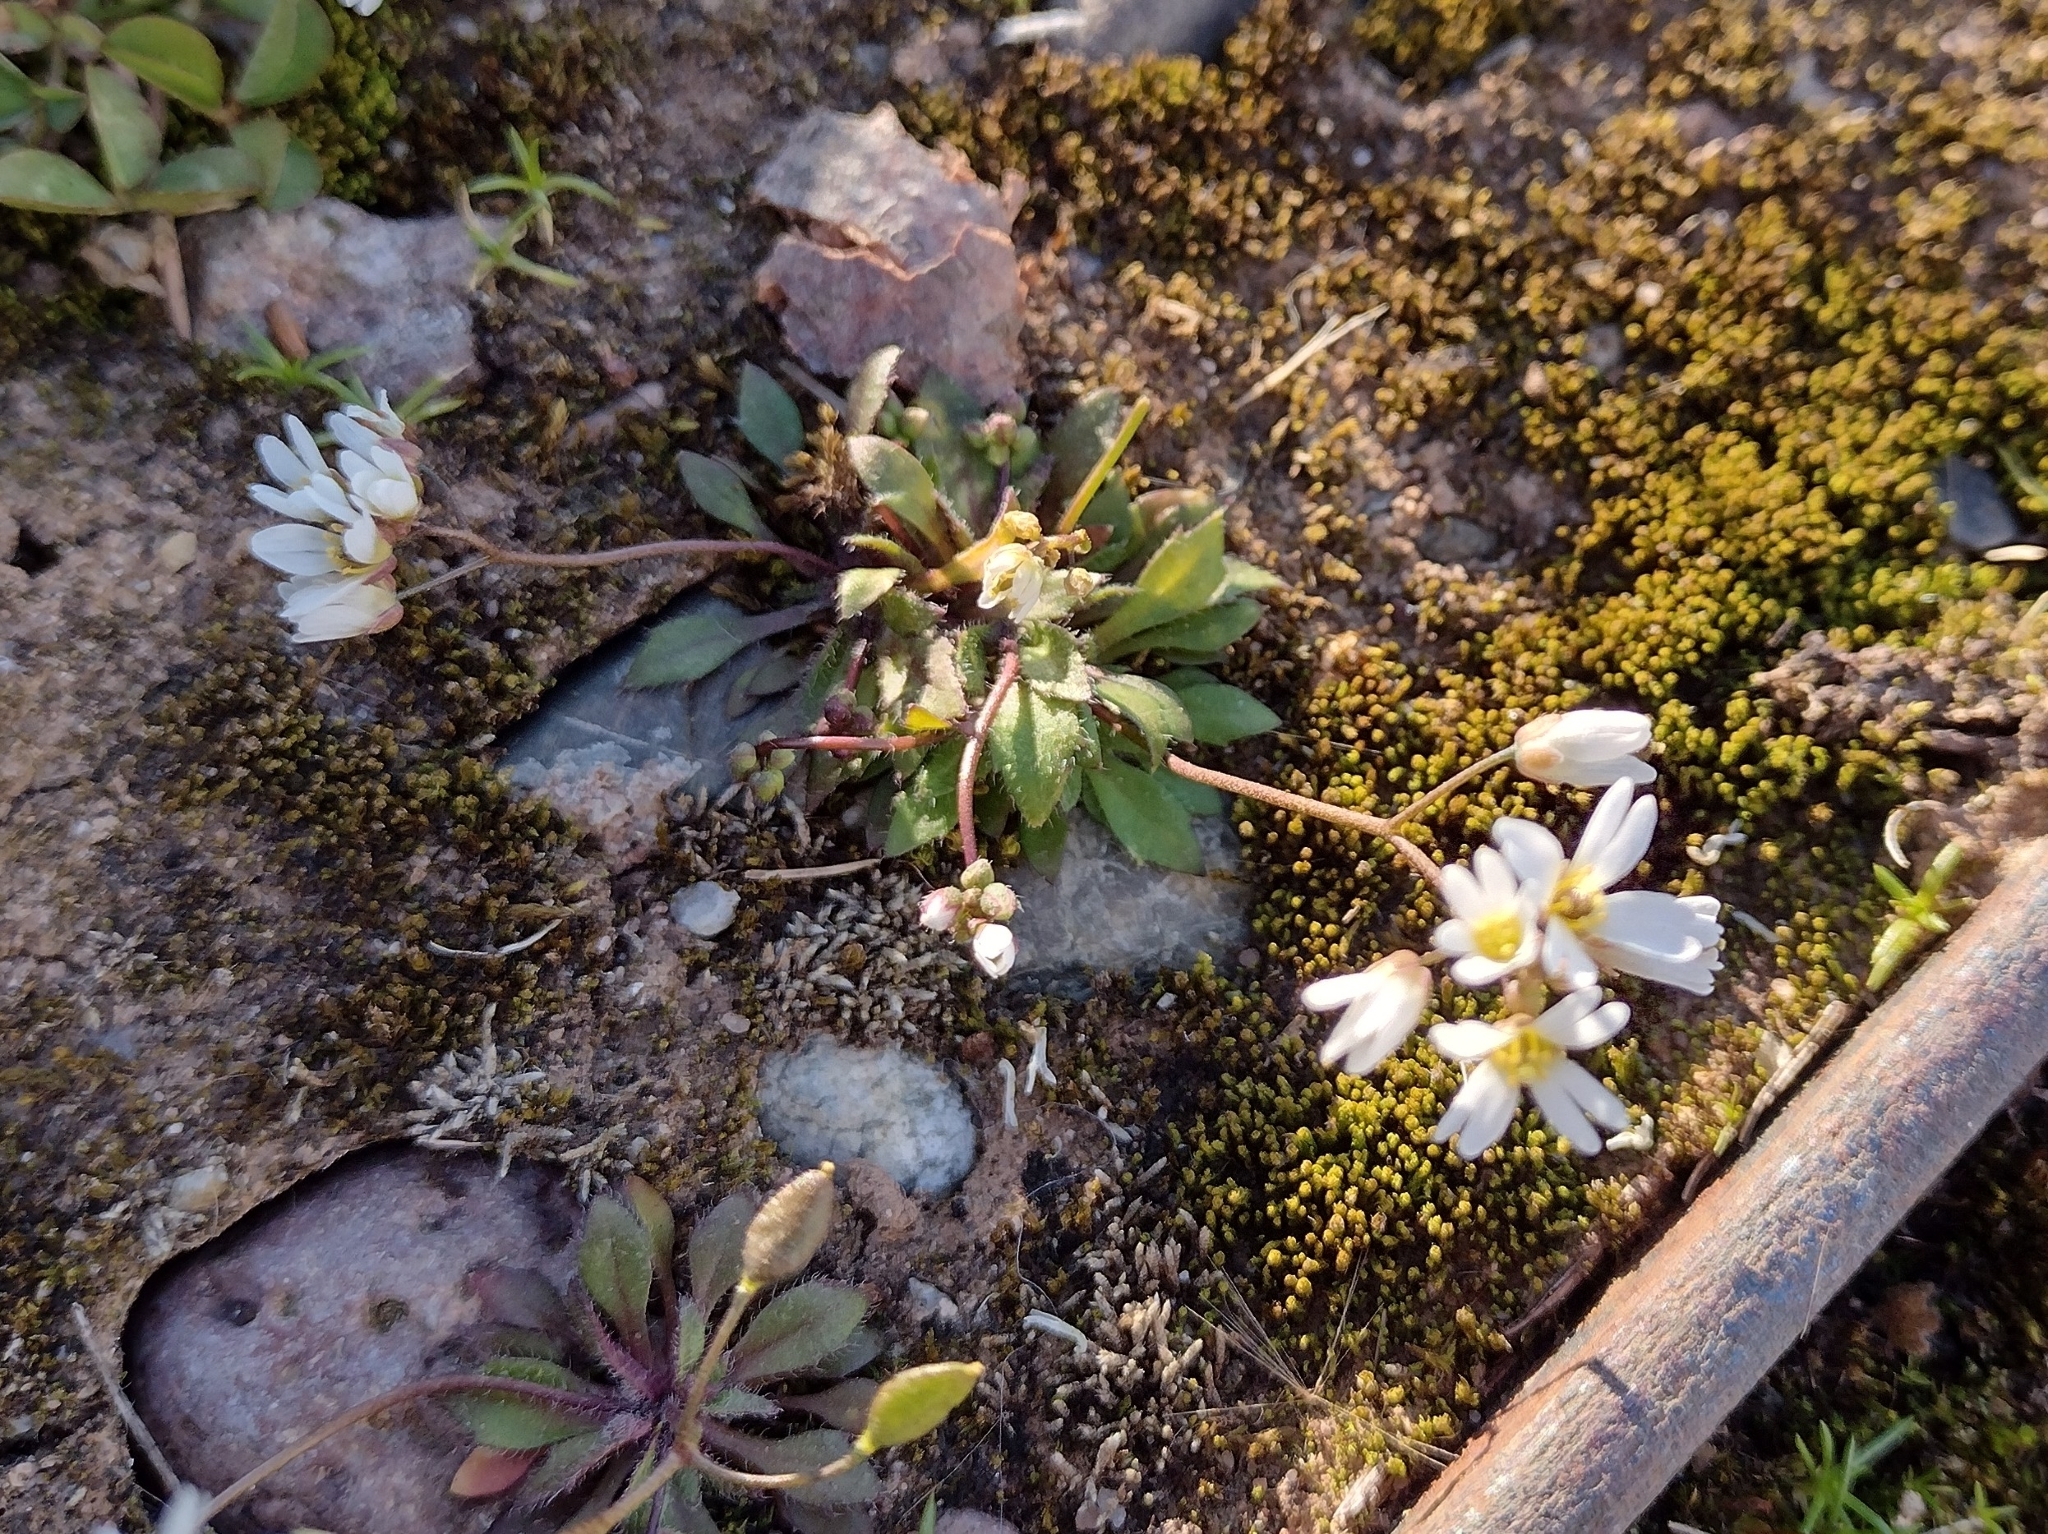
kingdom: Plantae
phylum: Tracheophyta
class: Magnoliopsida
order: Brassicales
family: Brassicaceae
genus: Draba
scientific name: Draba verna
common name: Spring draba
